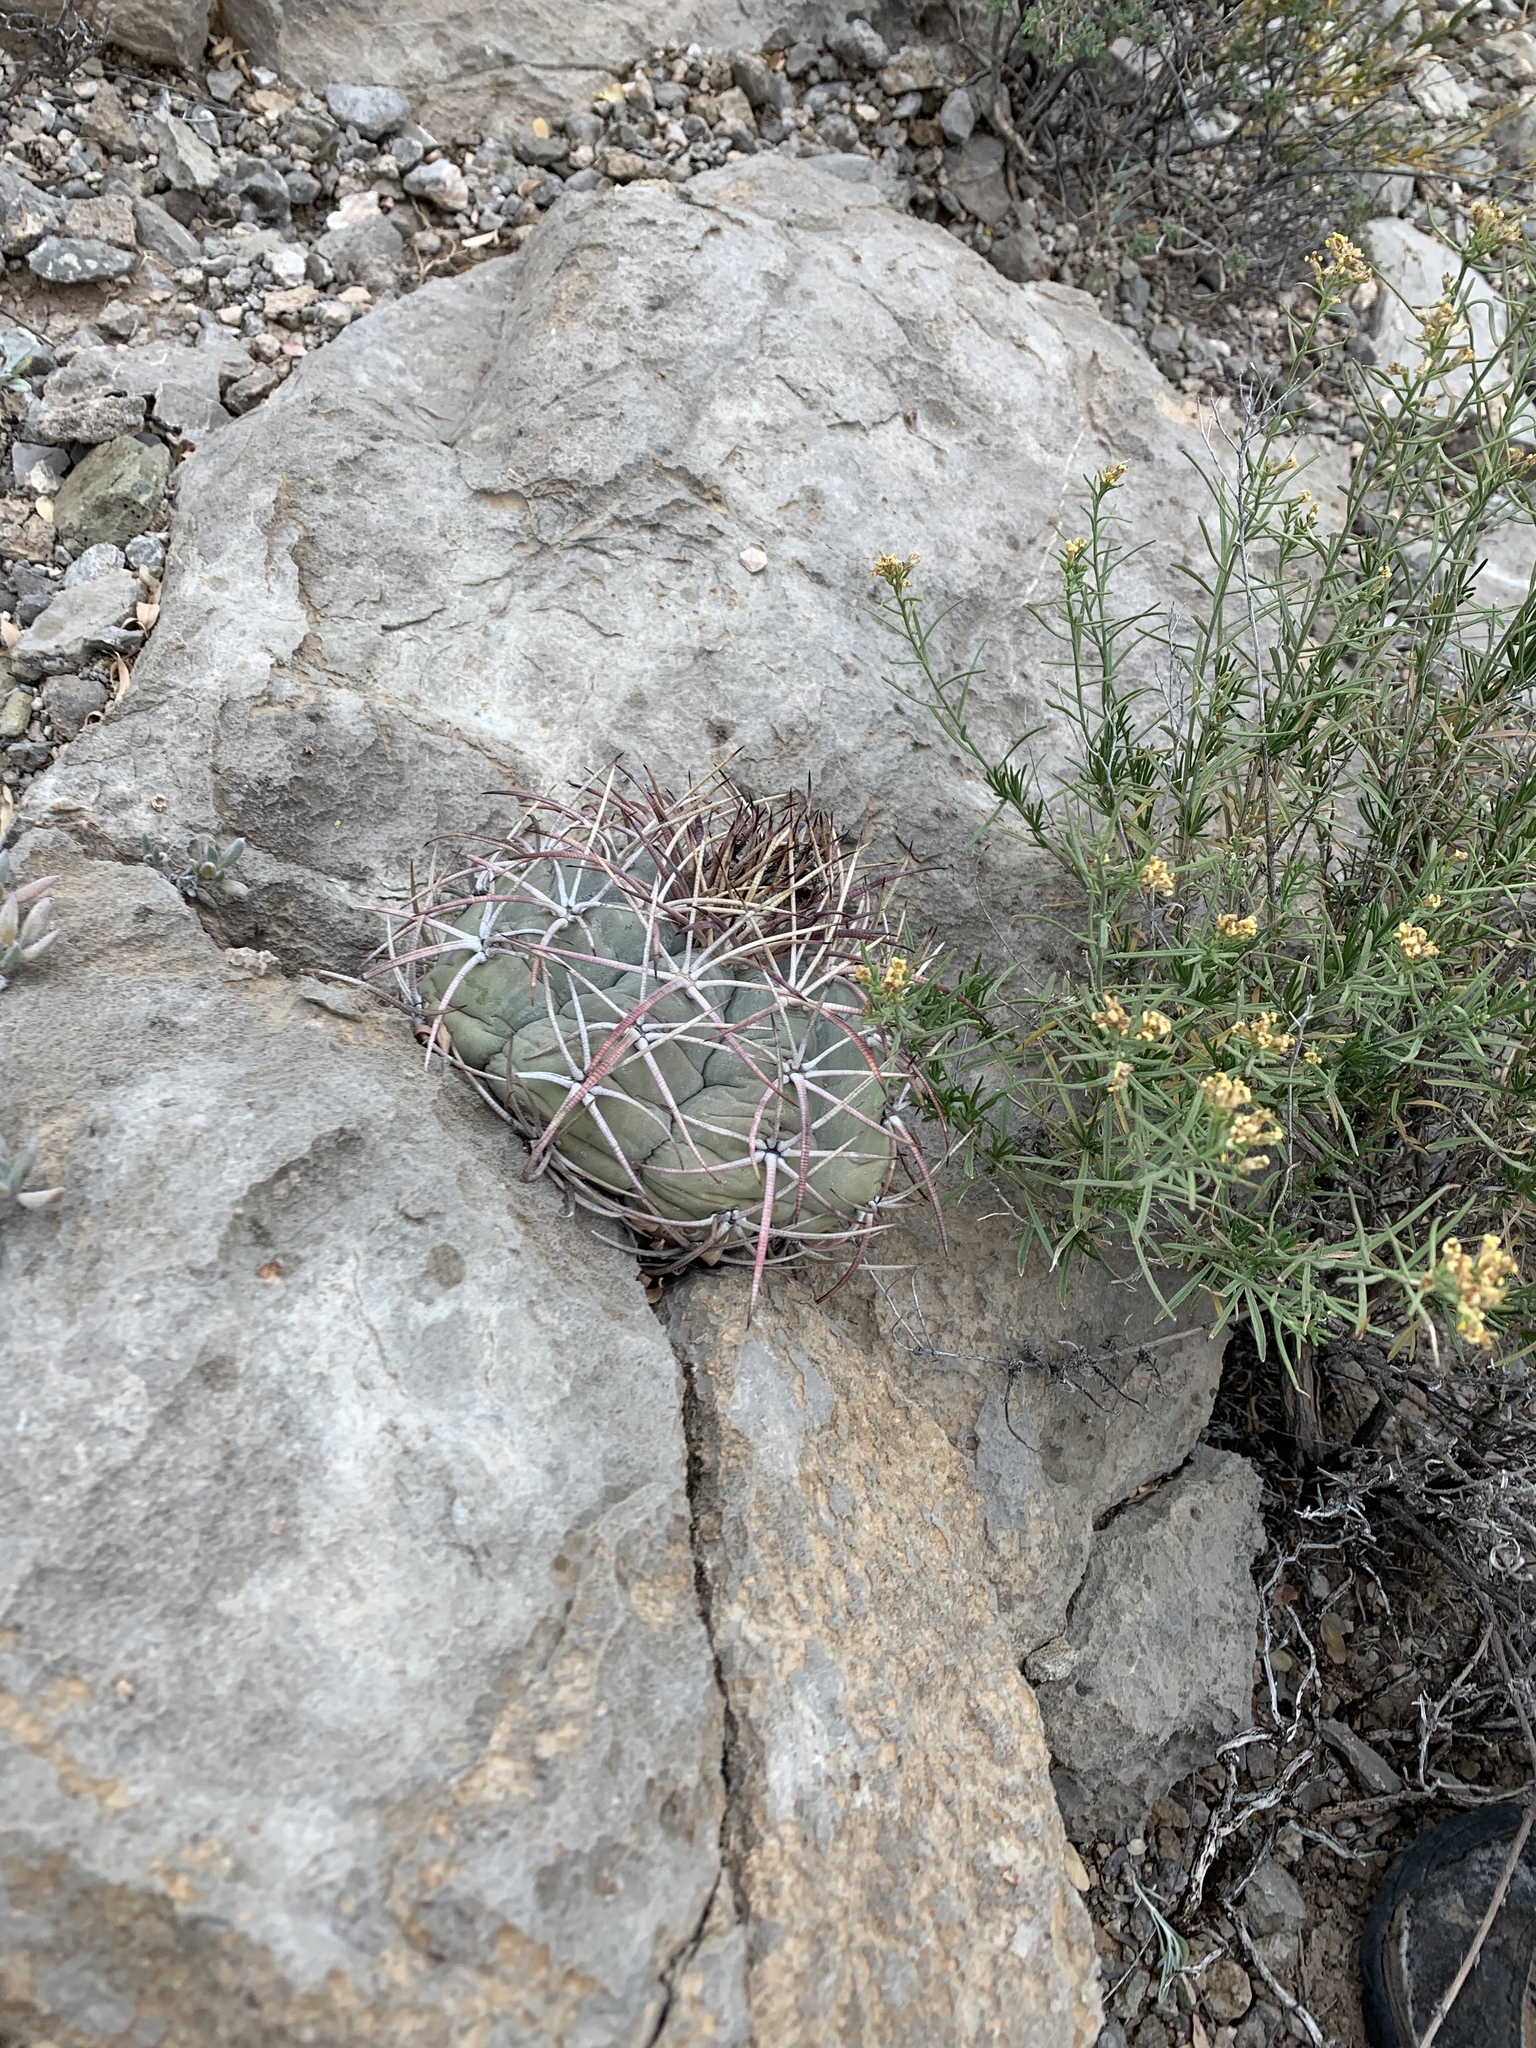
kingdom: Plantae
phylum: Tracheophyta
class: Magnoliopsida
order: Caryophyllales
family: Cactaceae
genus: Echinocactus
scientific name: Echinocactus horizonthalonius
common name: Devilshead
